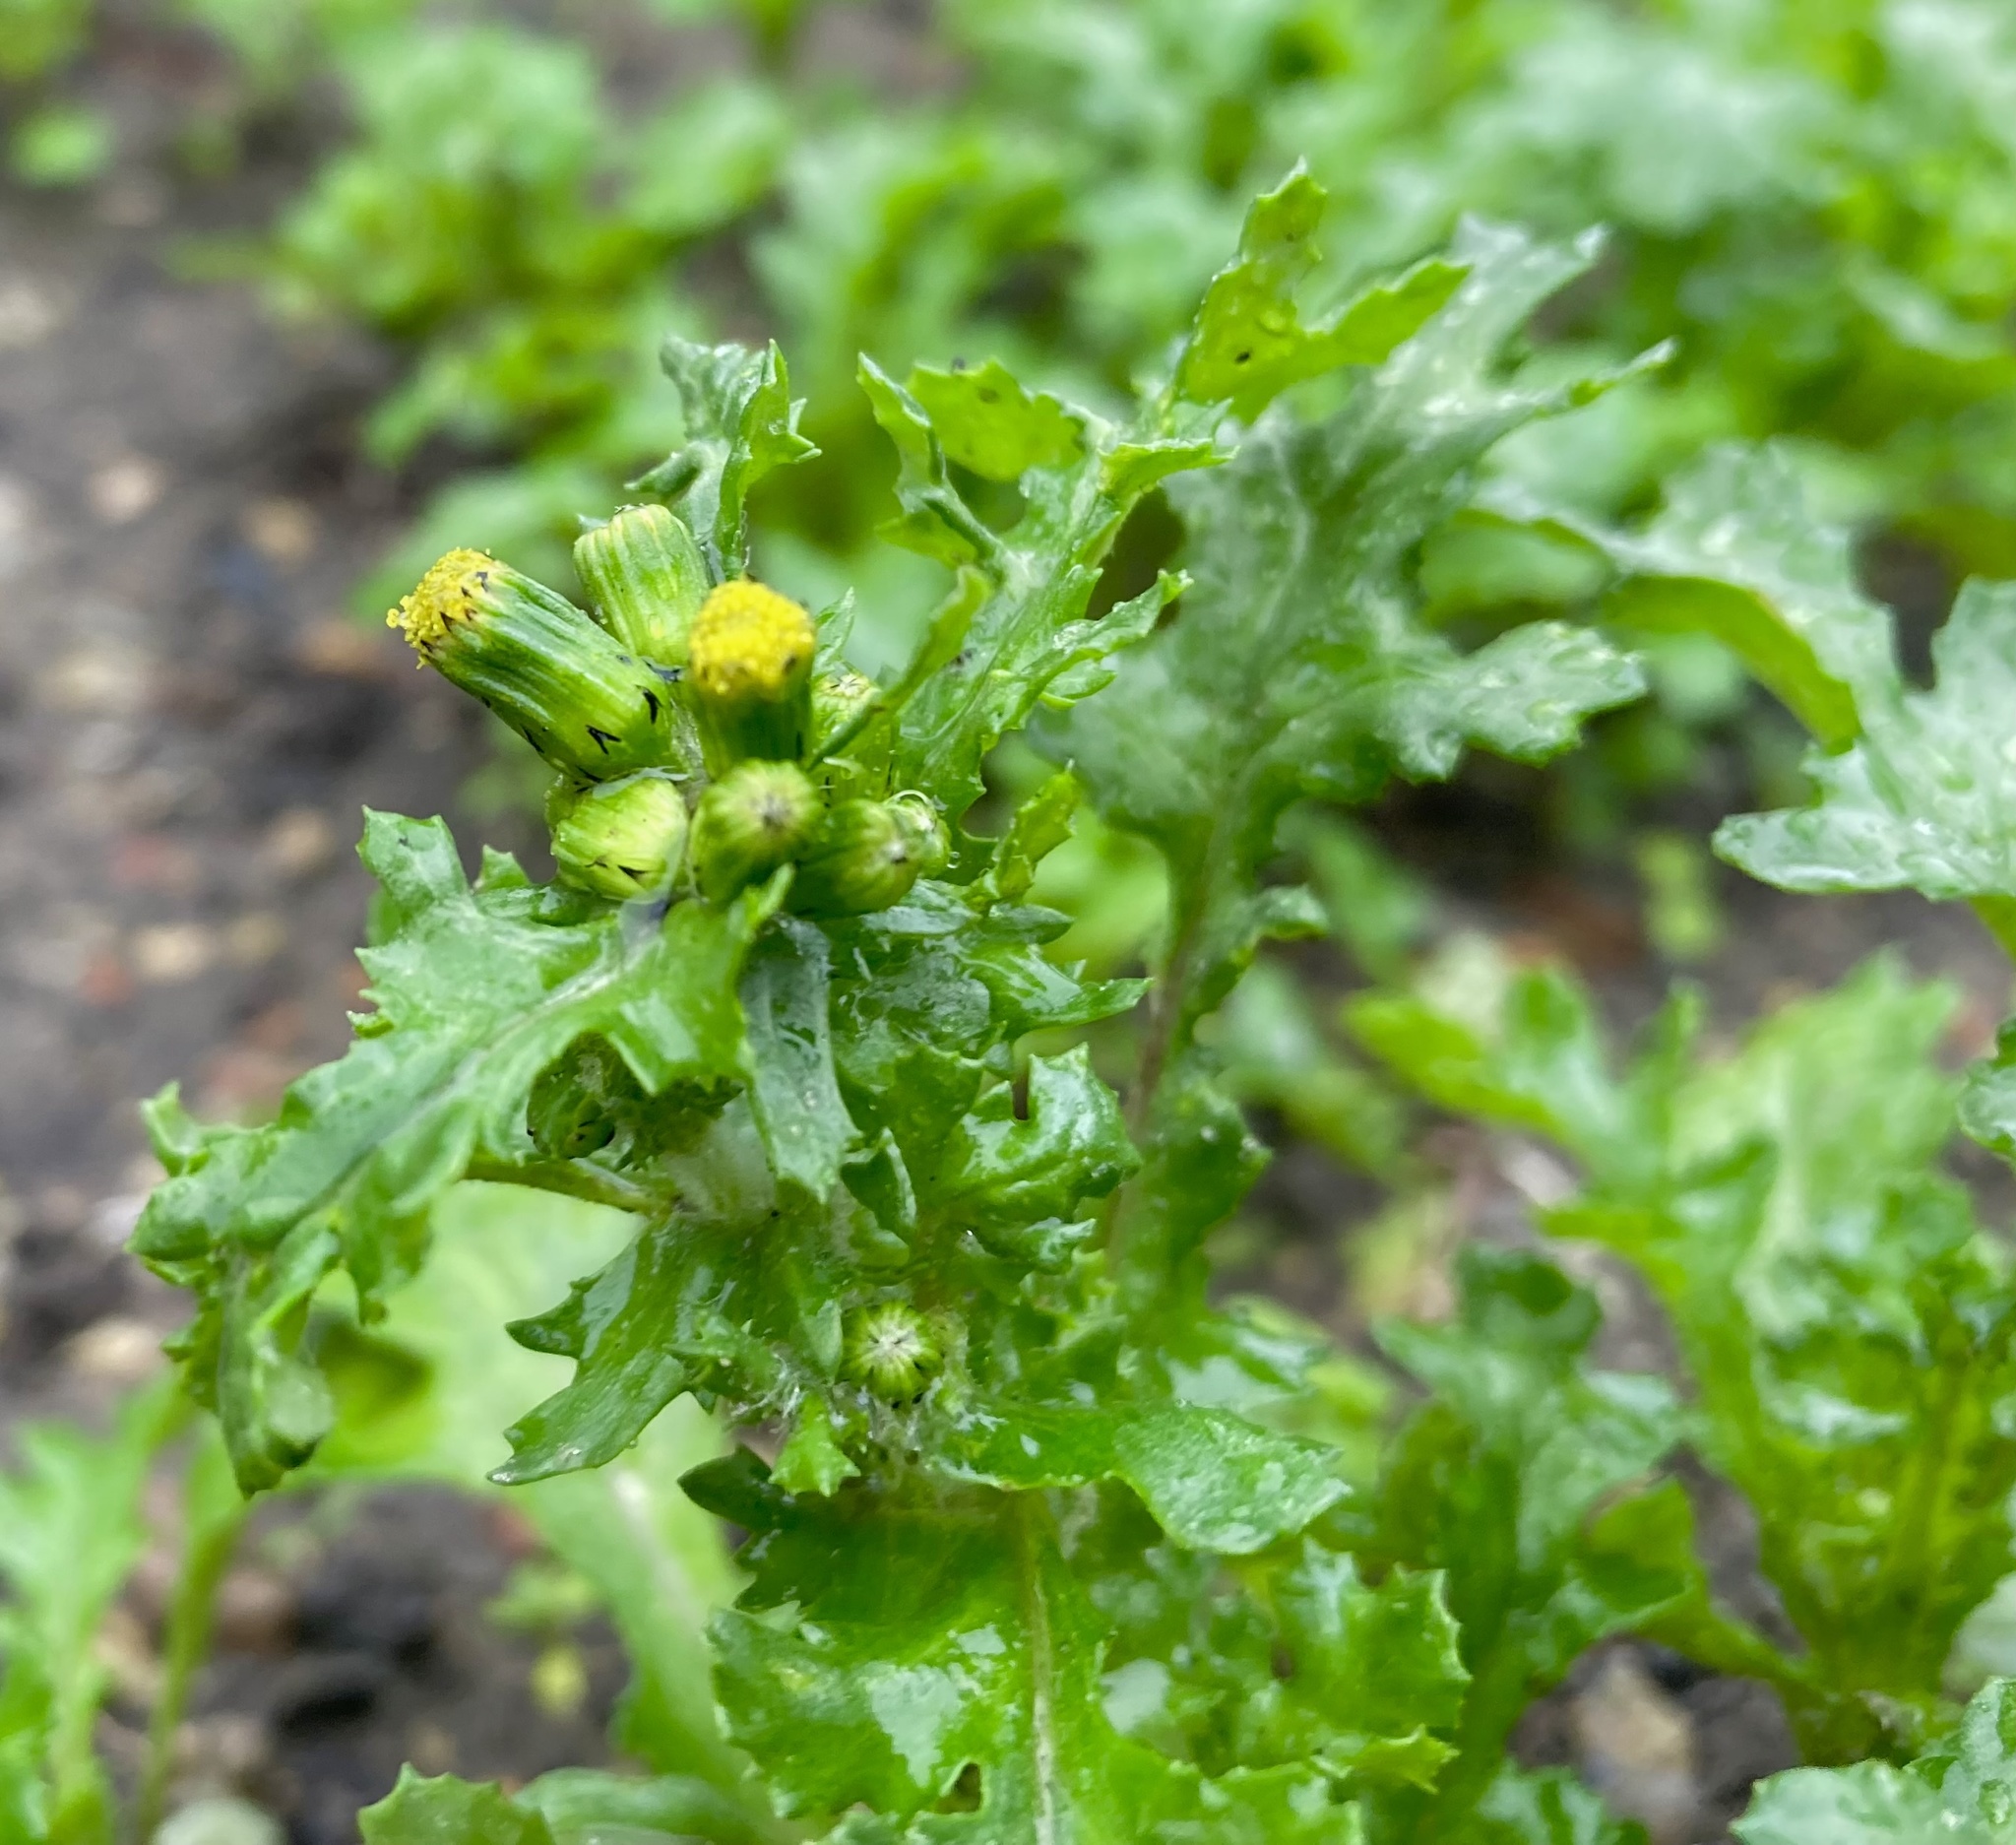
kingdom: Plantae
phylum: Tracheophyta
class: Magnoliopsida
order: Asterales
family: Asteraceae
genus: Senecio
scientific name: Senecio vulgaris
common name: Old-man-in-the-spring
